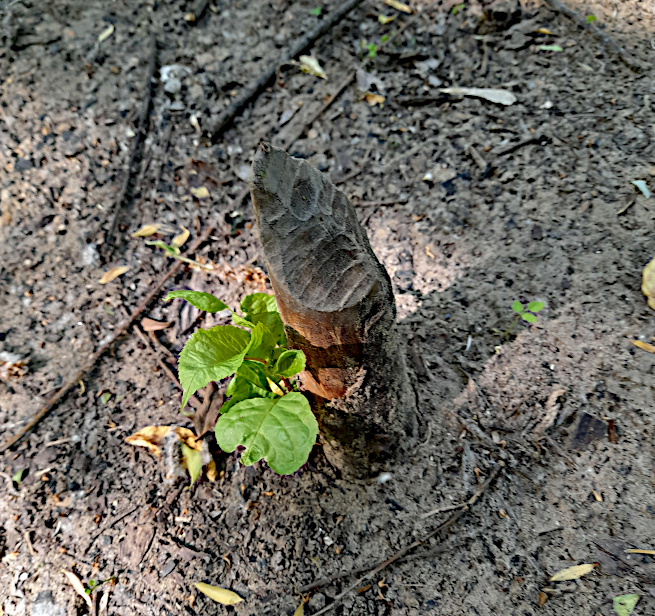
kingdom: Plantae
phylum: Tracheophyta
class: Magnoliopsida
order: Rosales
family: Rosaceae
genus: Prunus
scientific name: Prunus padus
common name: Bird cherry
